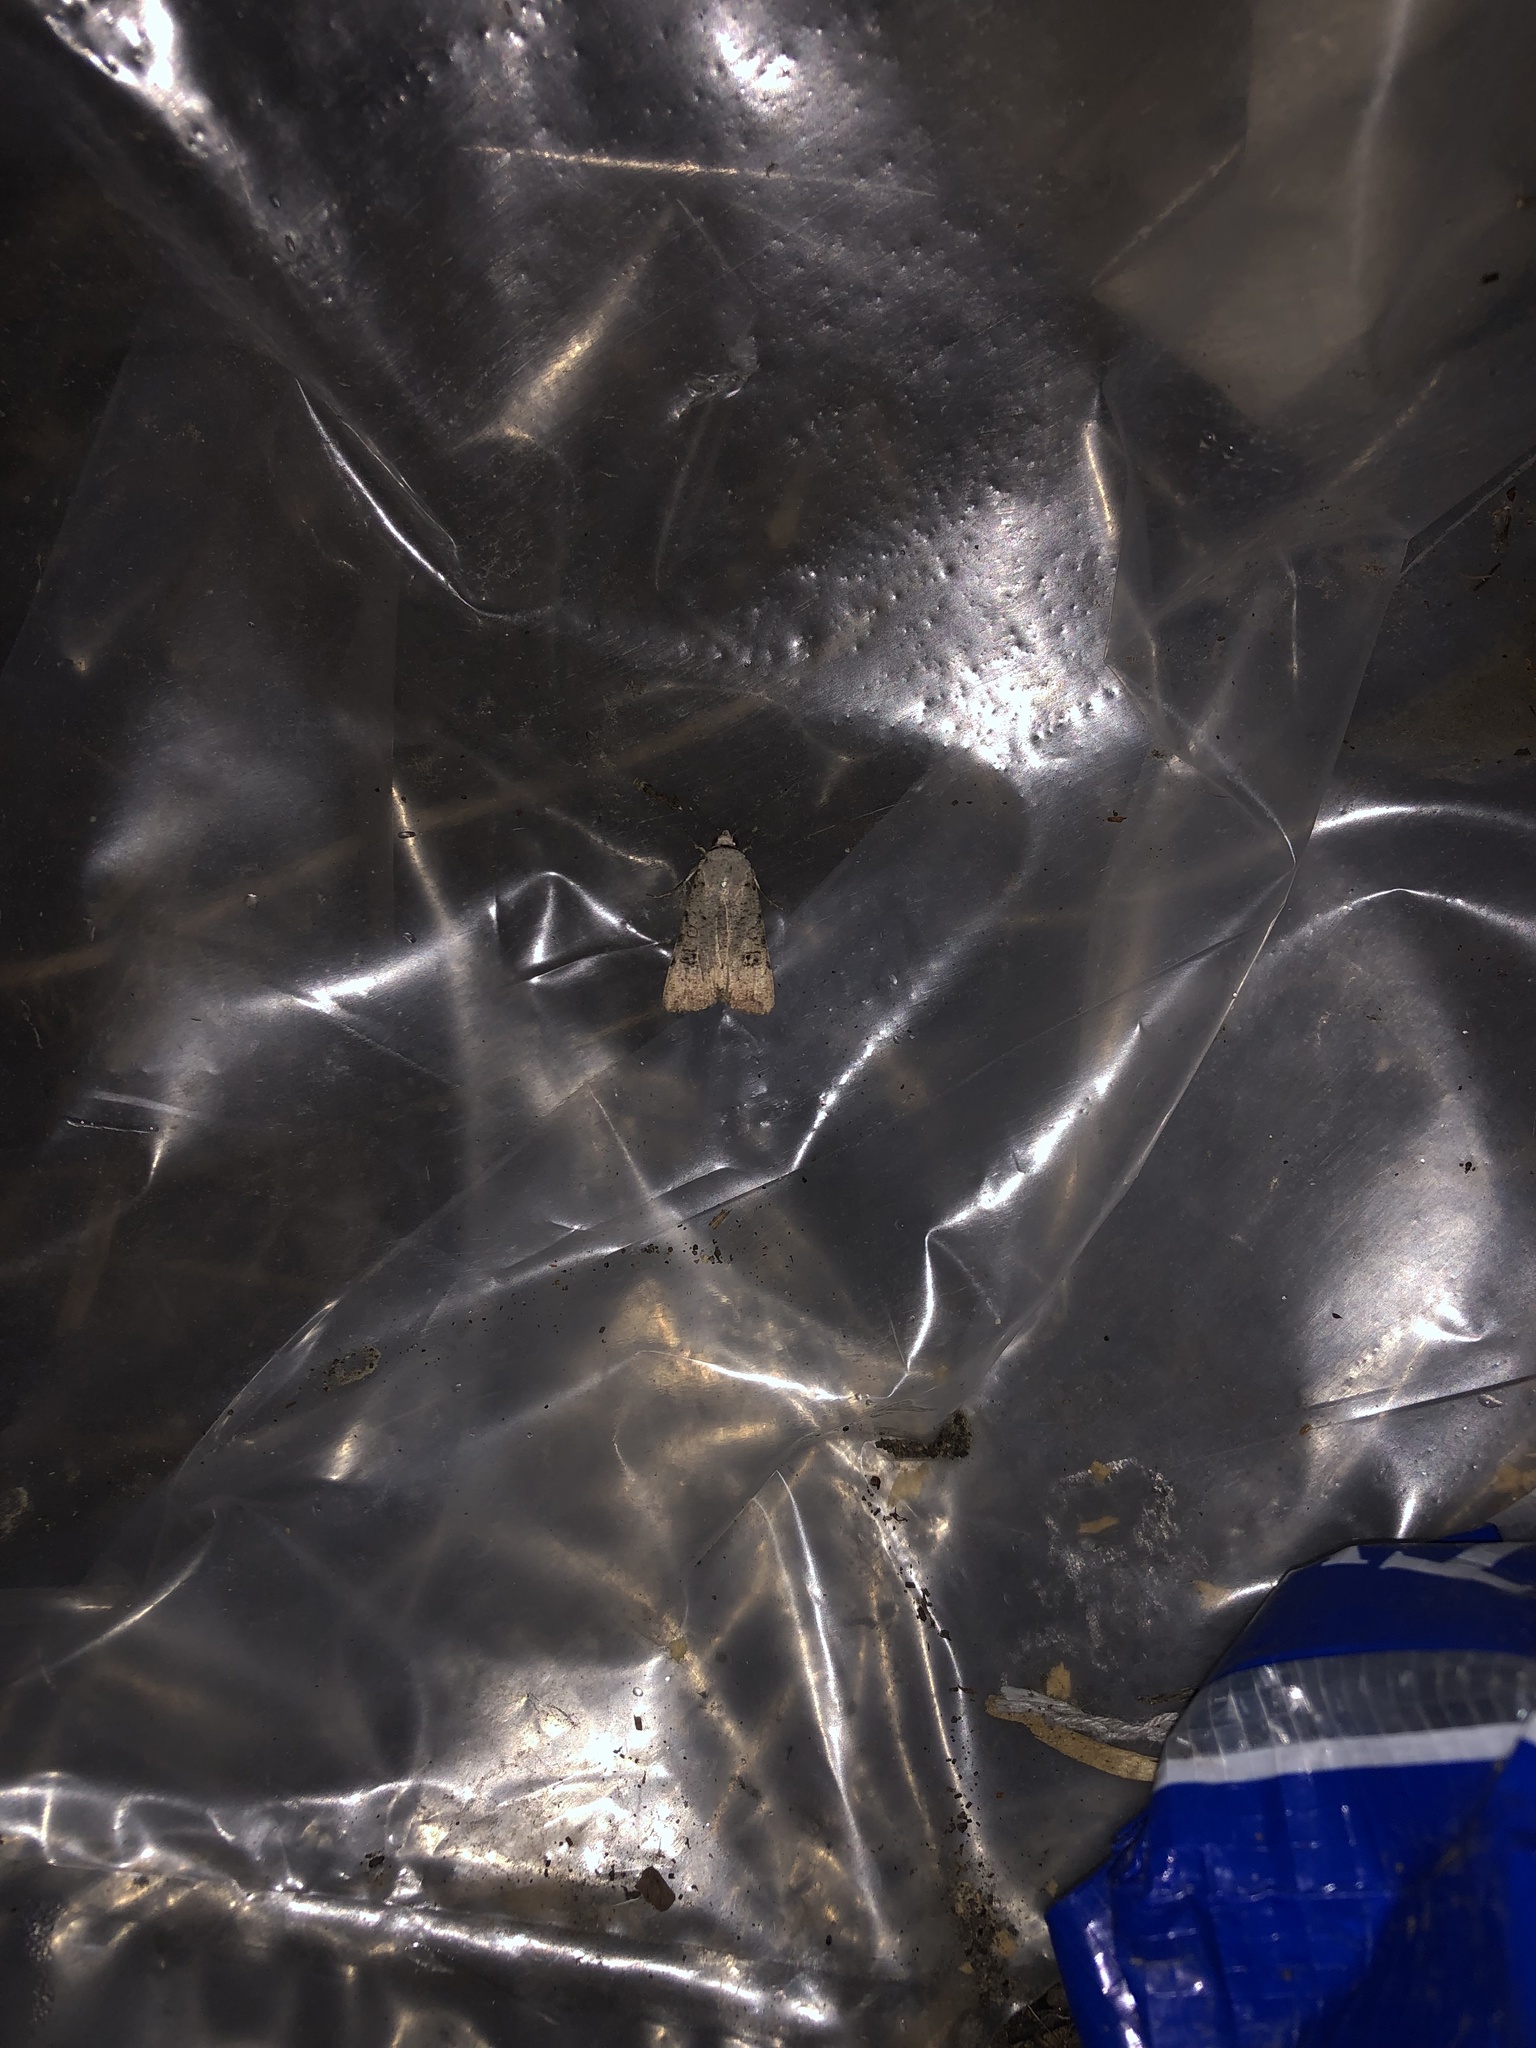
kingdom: Animalia
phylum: Arthropoda
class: Insecta
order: Lepidoptera
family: Noctuidae
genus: Anicla
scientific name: Anicla infecta
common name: Green cutworm
